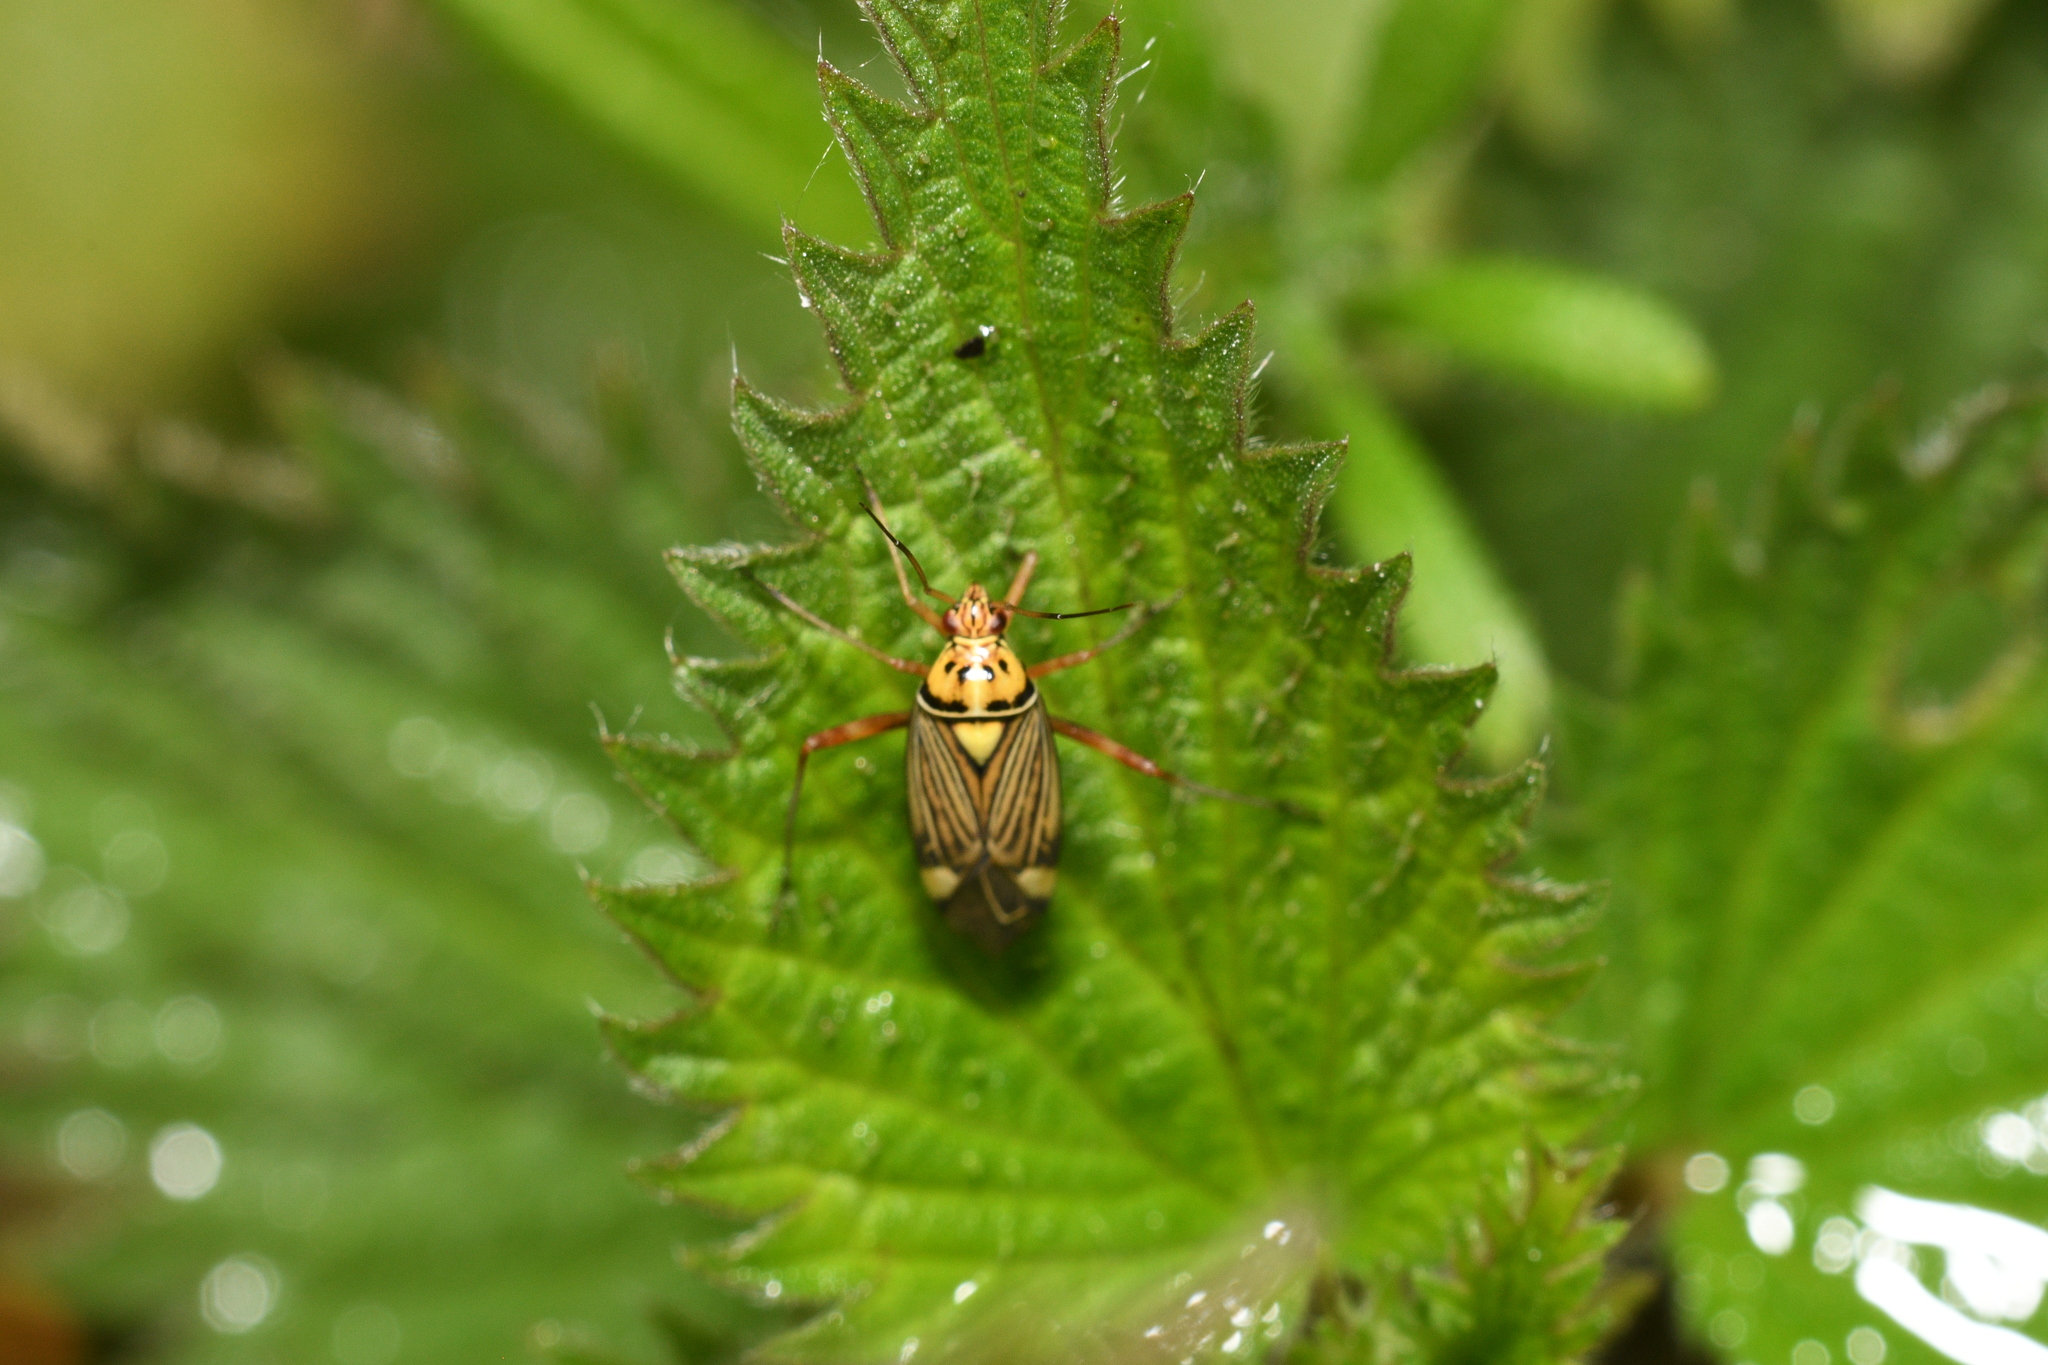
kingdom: Animalia
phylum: Arthropoda
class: Insecta
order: Hemiptera
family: Miridae
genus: Rhabdomiris
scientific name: Rhabdomiris striatellus
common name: Plant bug
